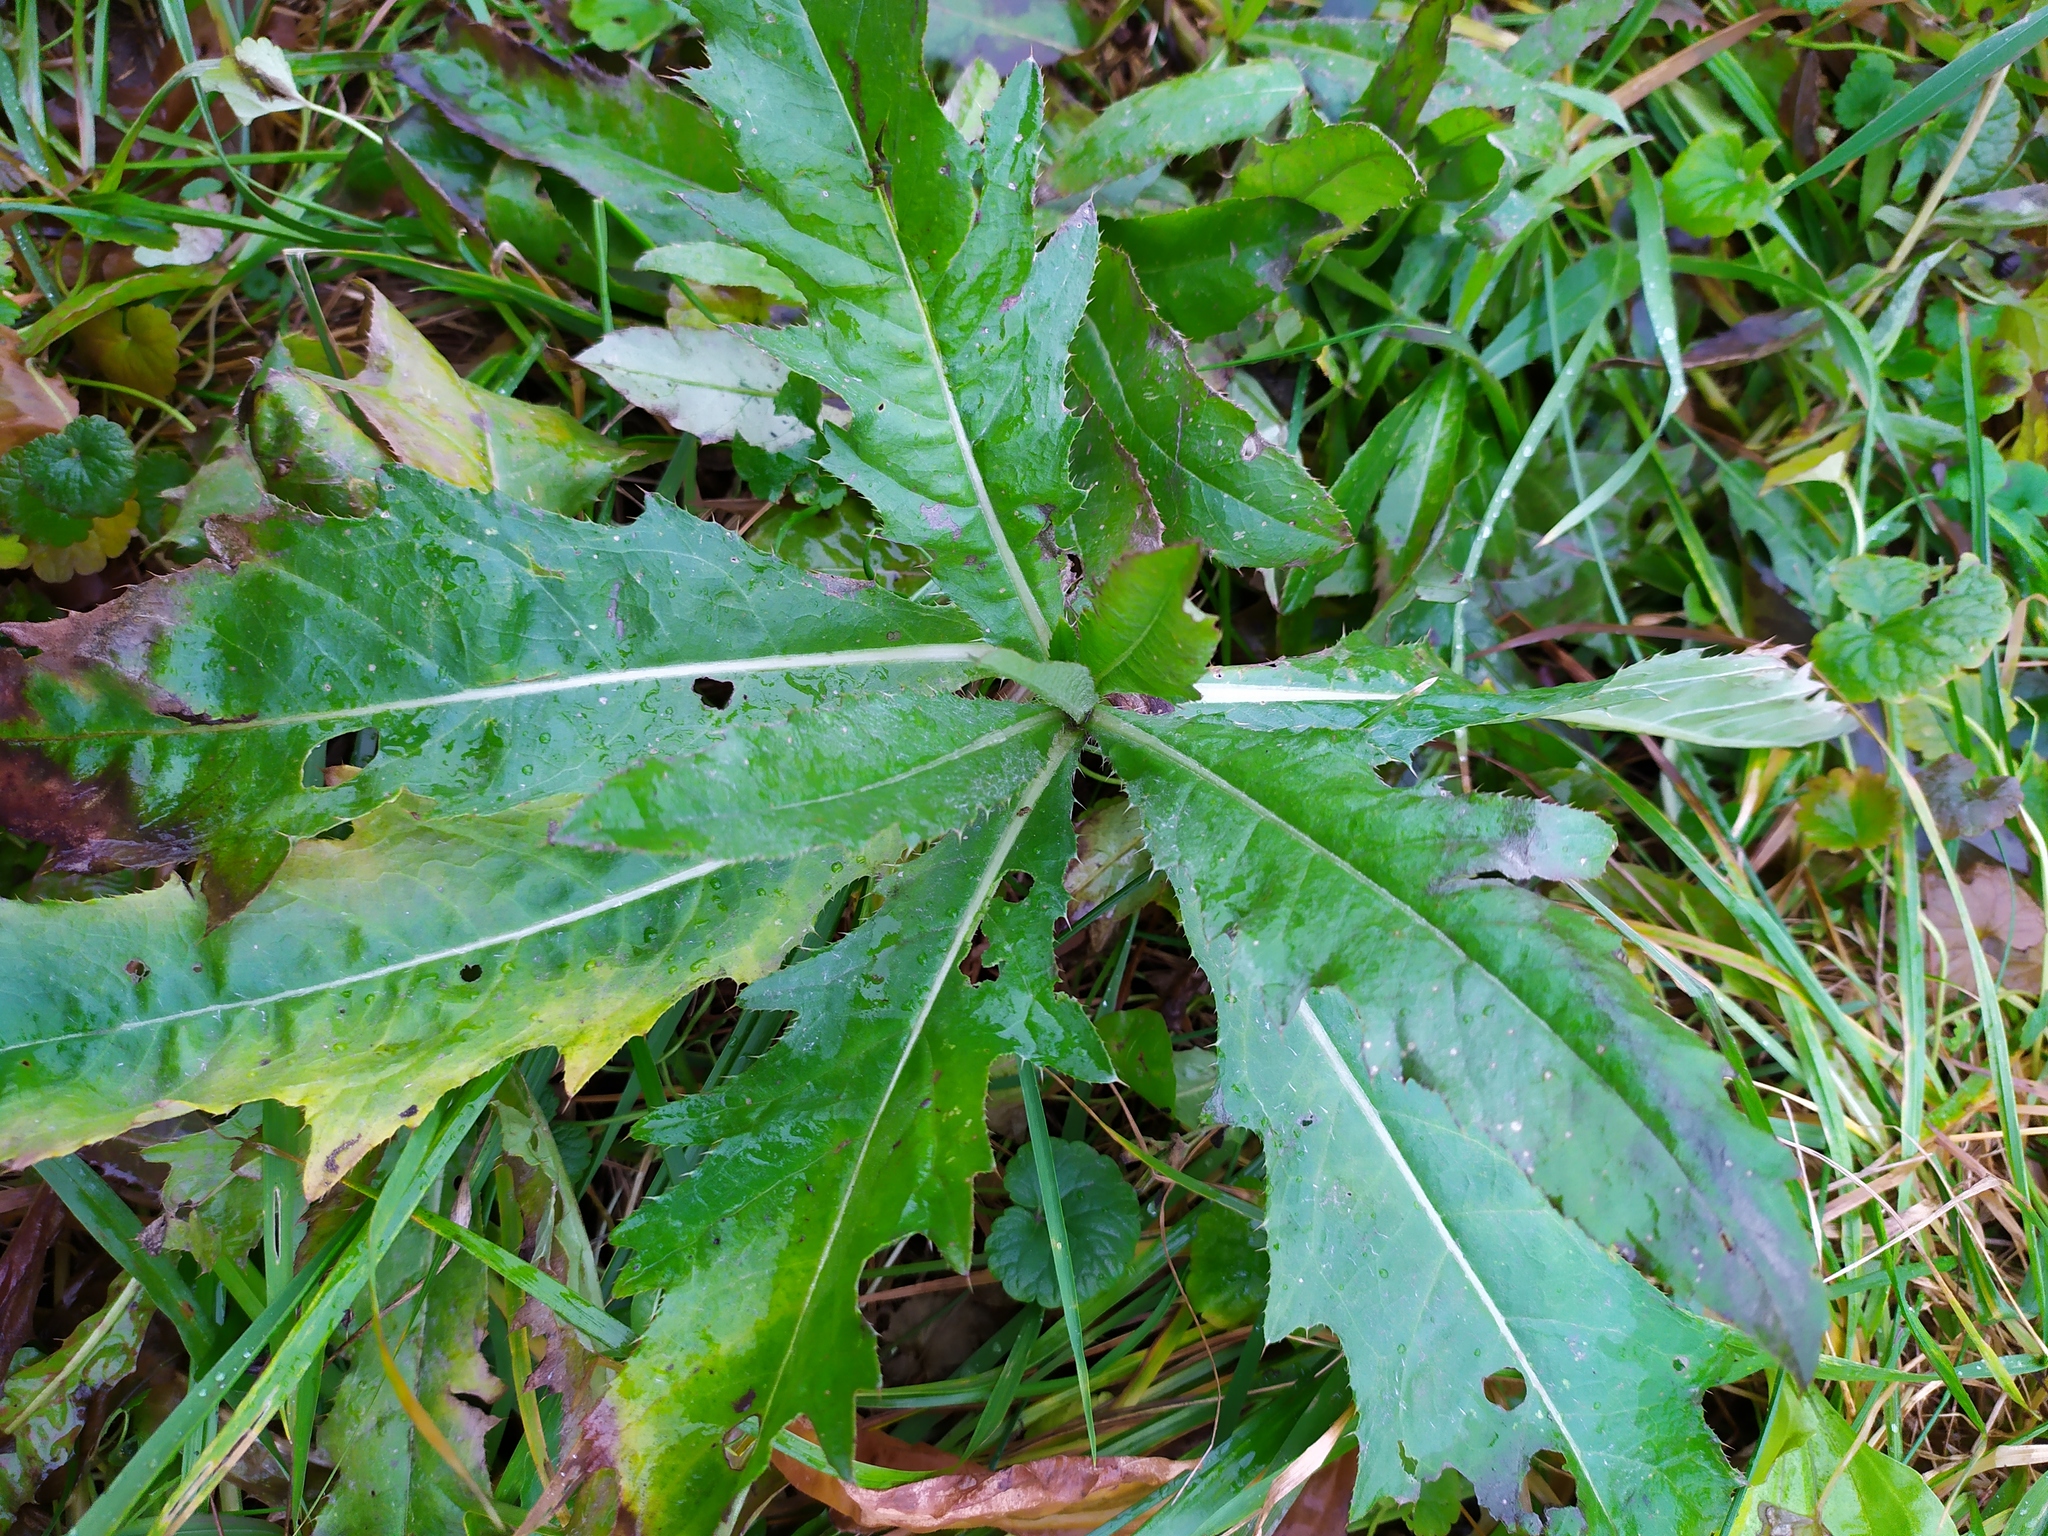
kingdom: Plantae
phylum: Tracheophyta
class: Magnoliopsida
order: Asterales
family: Asteraceae
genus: Cirsium
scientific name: Cirsium arvense
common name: Creeping thistle
